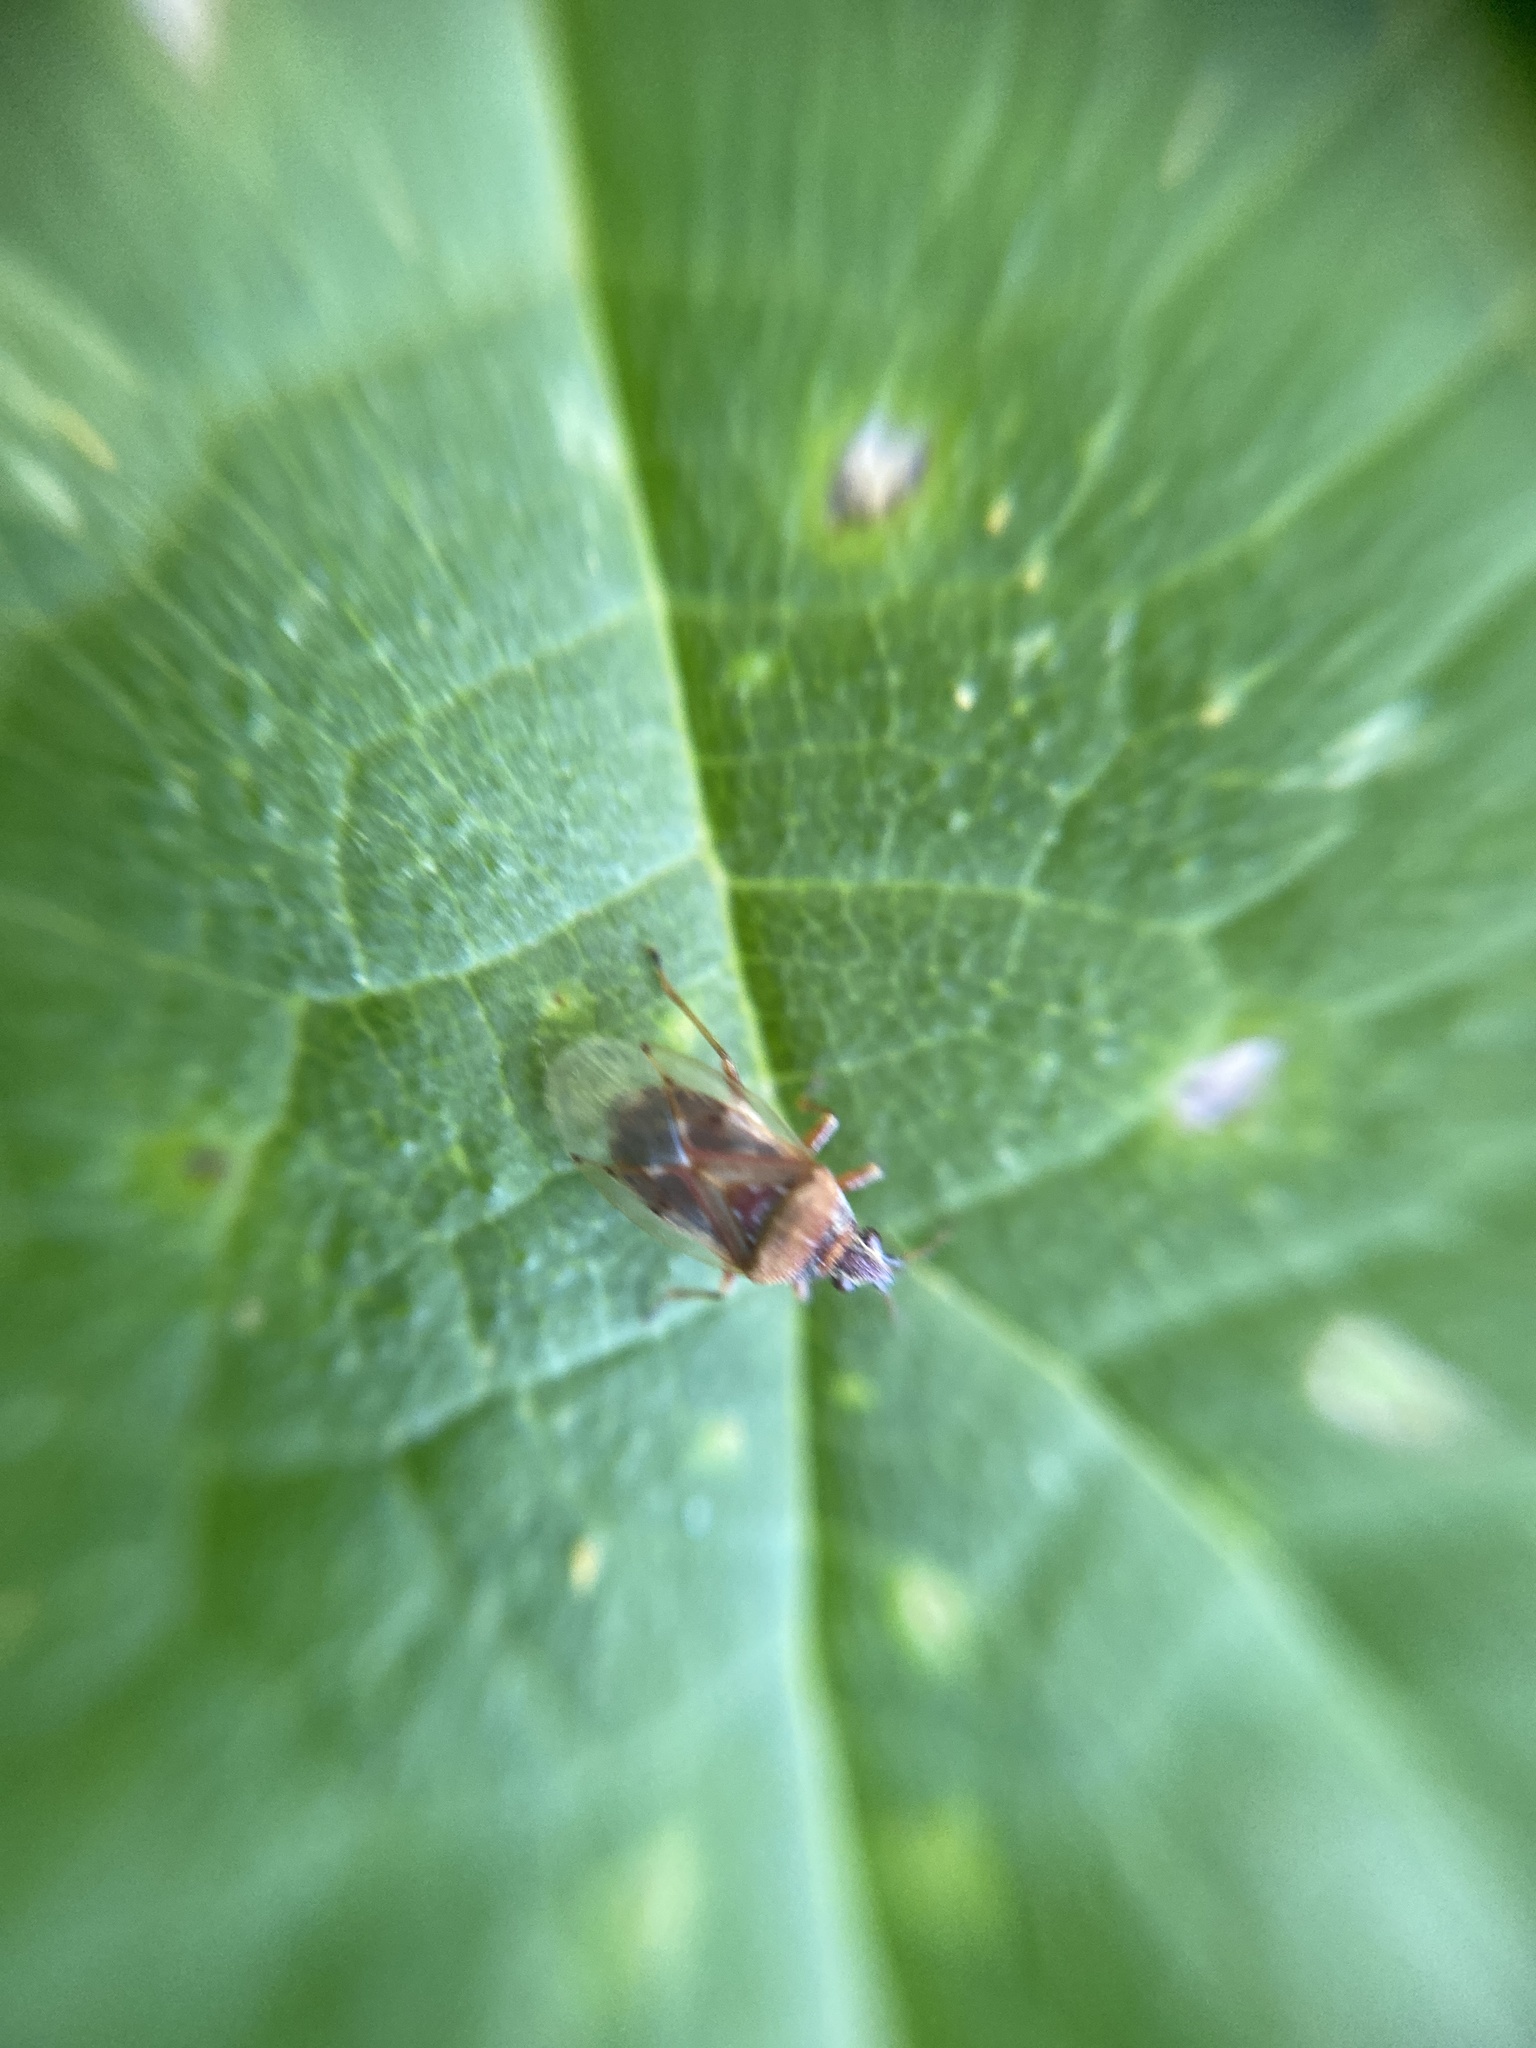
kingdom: Animalia
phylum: Arthropoda
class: Insecta
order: Hemiptera
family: Lygaeidae
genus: Kleidocerys
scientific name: Kleidocerys resedae
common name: Birch catkin bug
